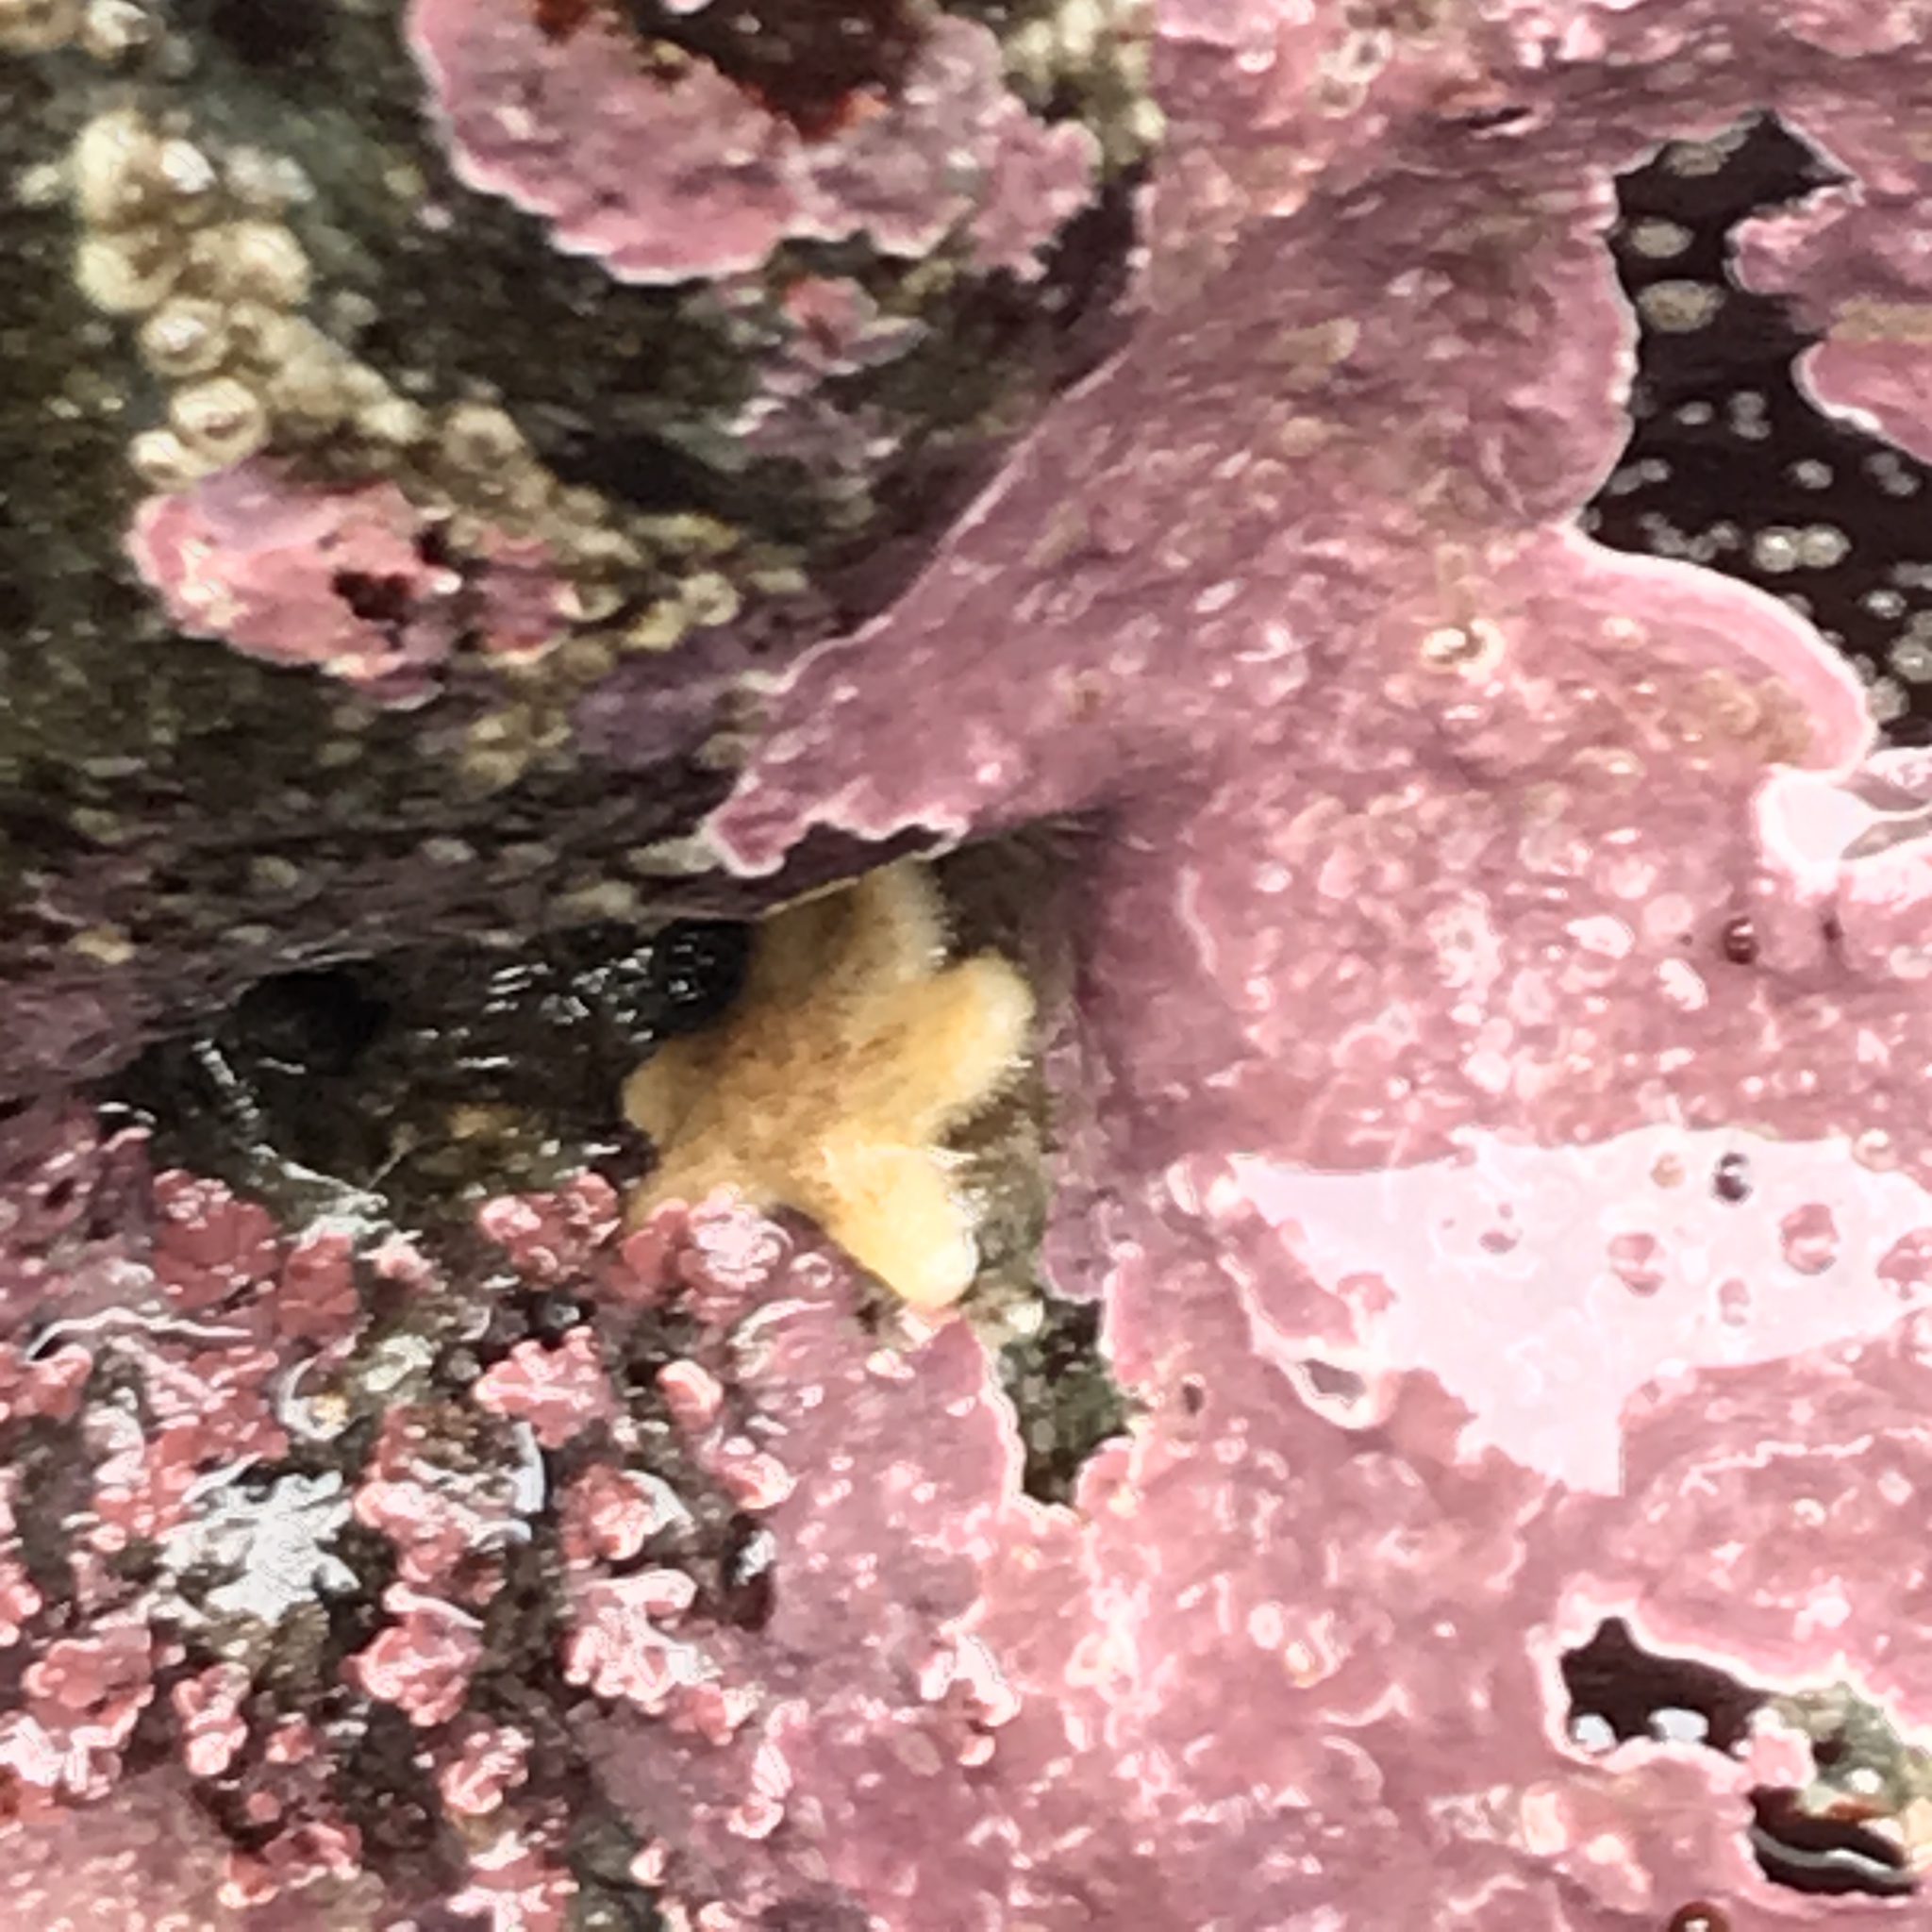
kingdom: Animalia
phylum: Echinodermata
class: Asteroidea
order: Forcipulatida
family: Asteriidae
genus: Leptasterias
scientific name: Leptasterias hexactis
